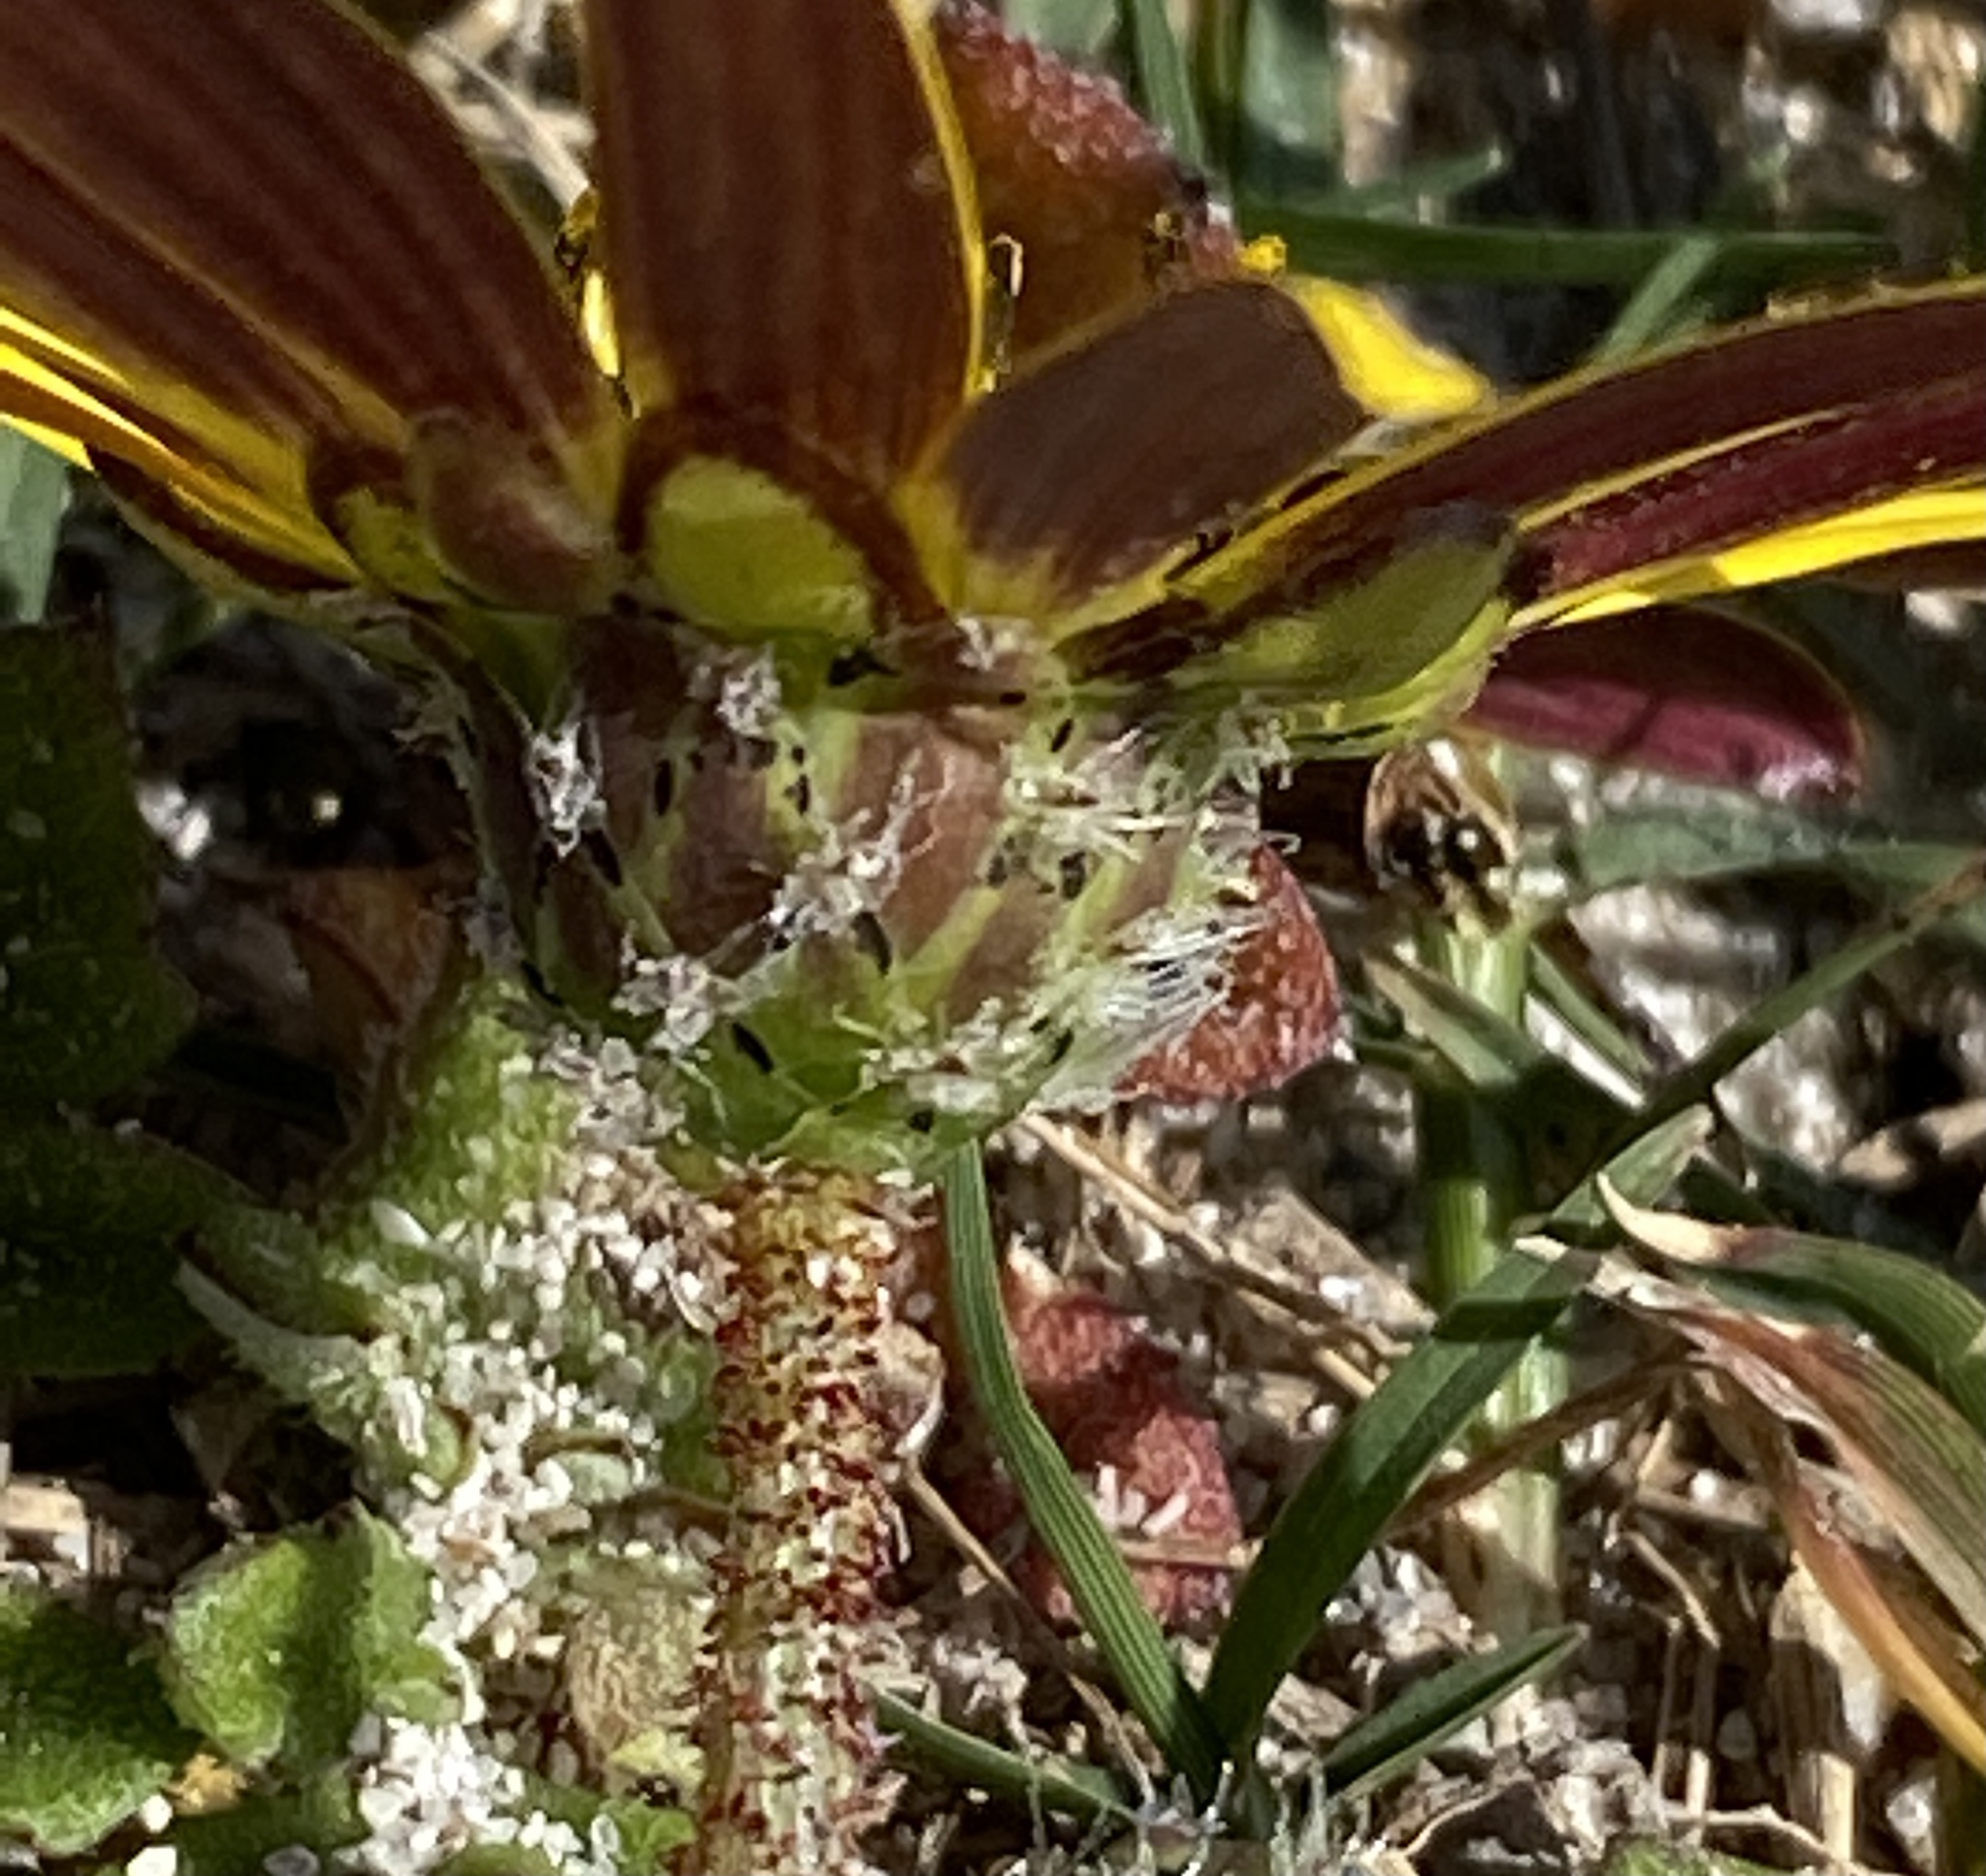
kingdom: Plantae
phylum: Tracheophyta
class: Magnoliopsida
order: Asterales
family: Asteraceae
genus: Arctotheca
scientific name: Arctotheca calendula
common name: Capeweed
